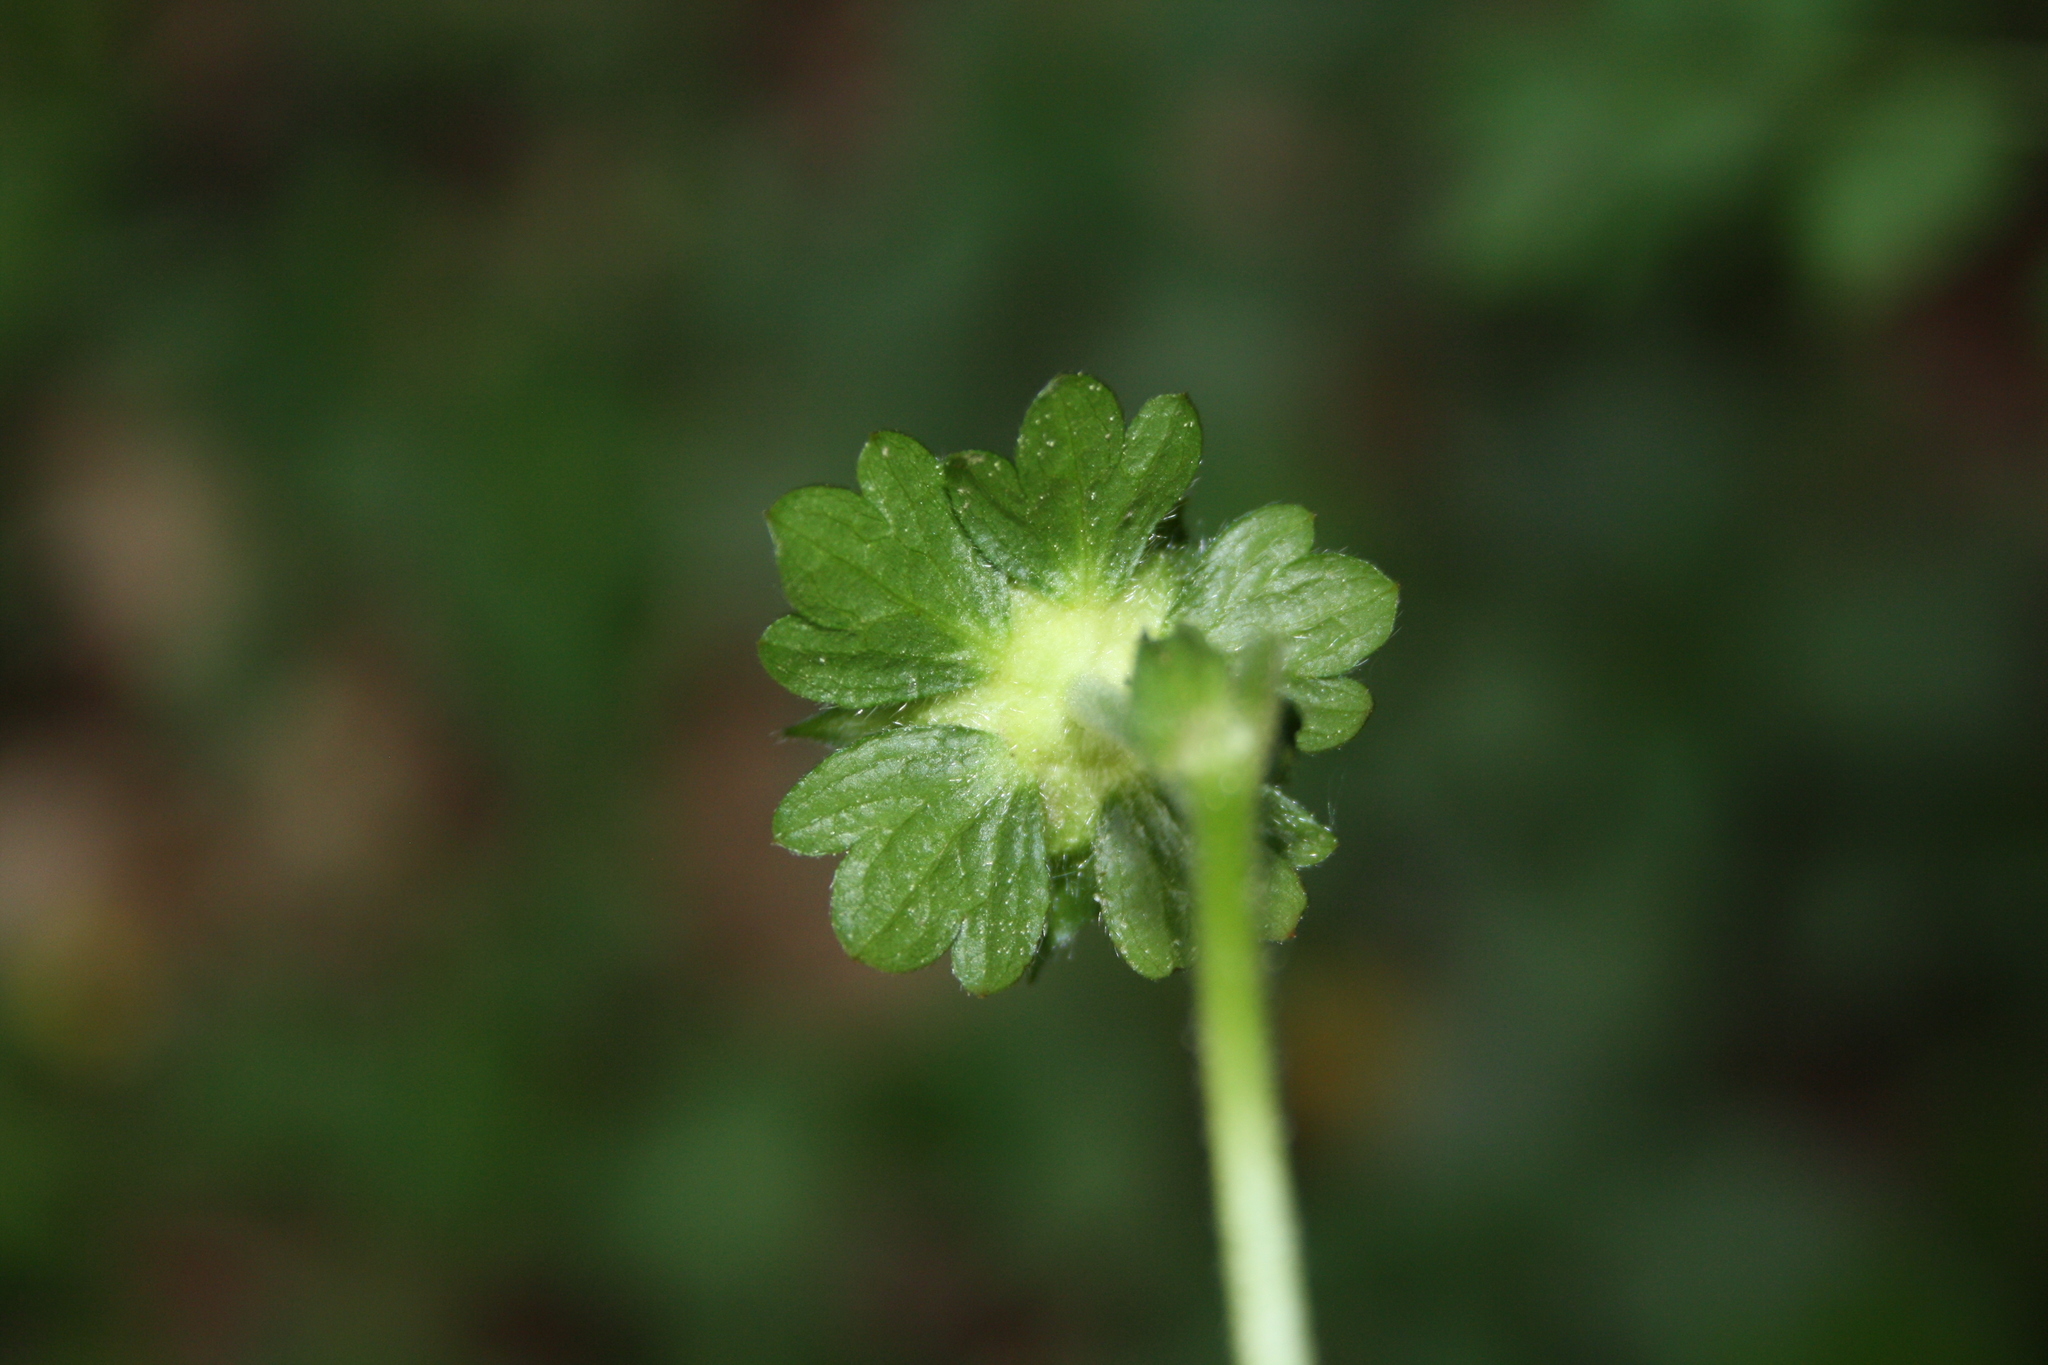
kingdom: Plantae
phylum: Tracheophyta
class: Magnoliopsida
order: Rosales
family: Rosaceae
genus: Potentilla
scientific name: Potentilla indica
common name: Yellow-flowered strawberry
